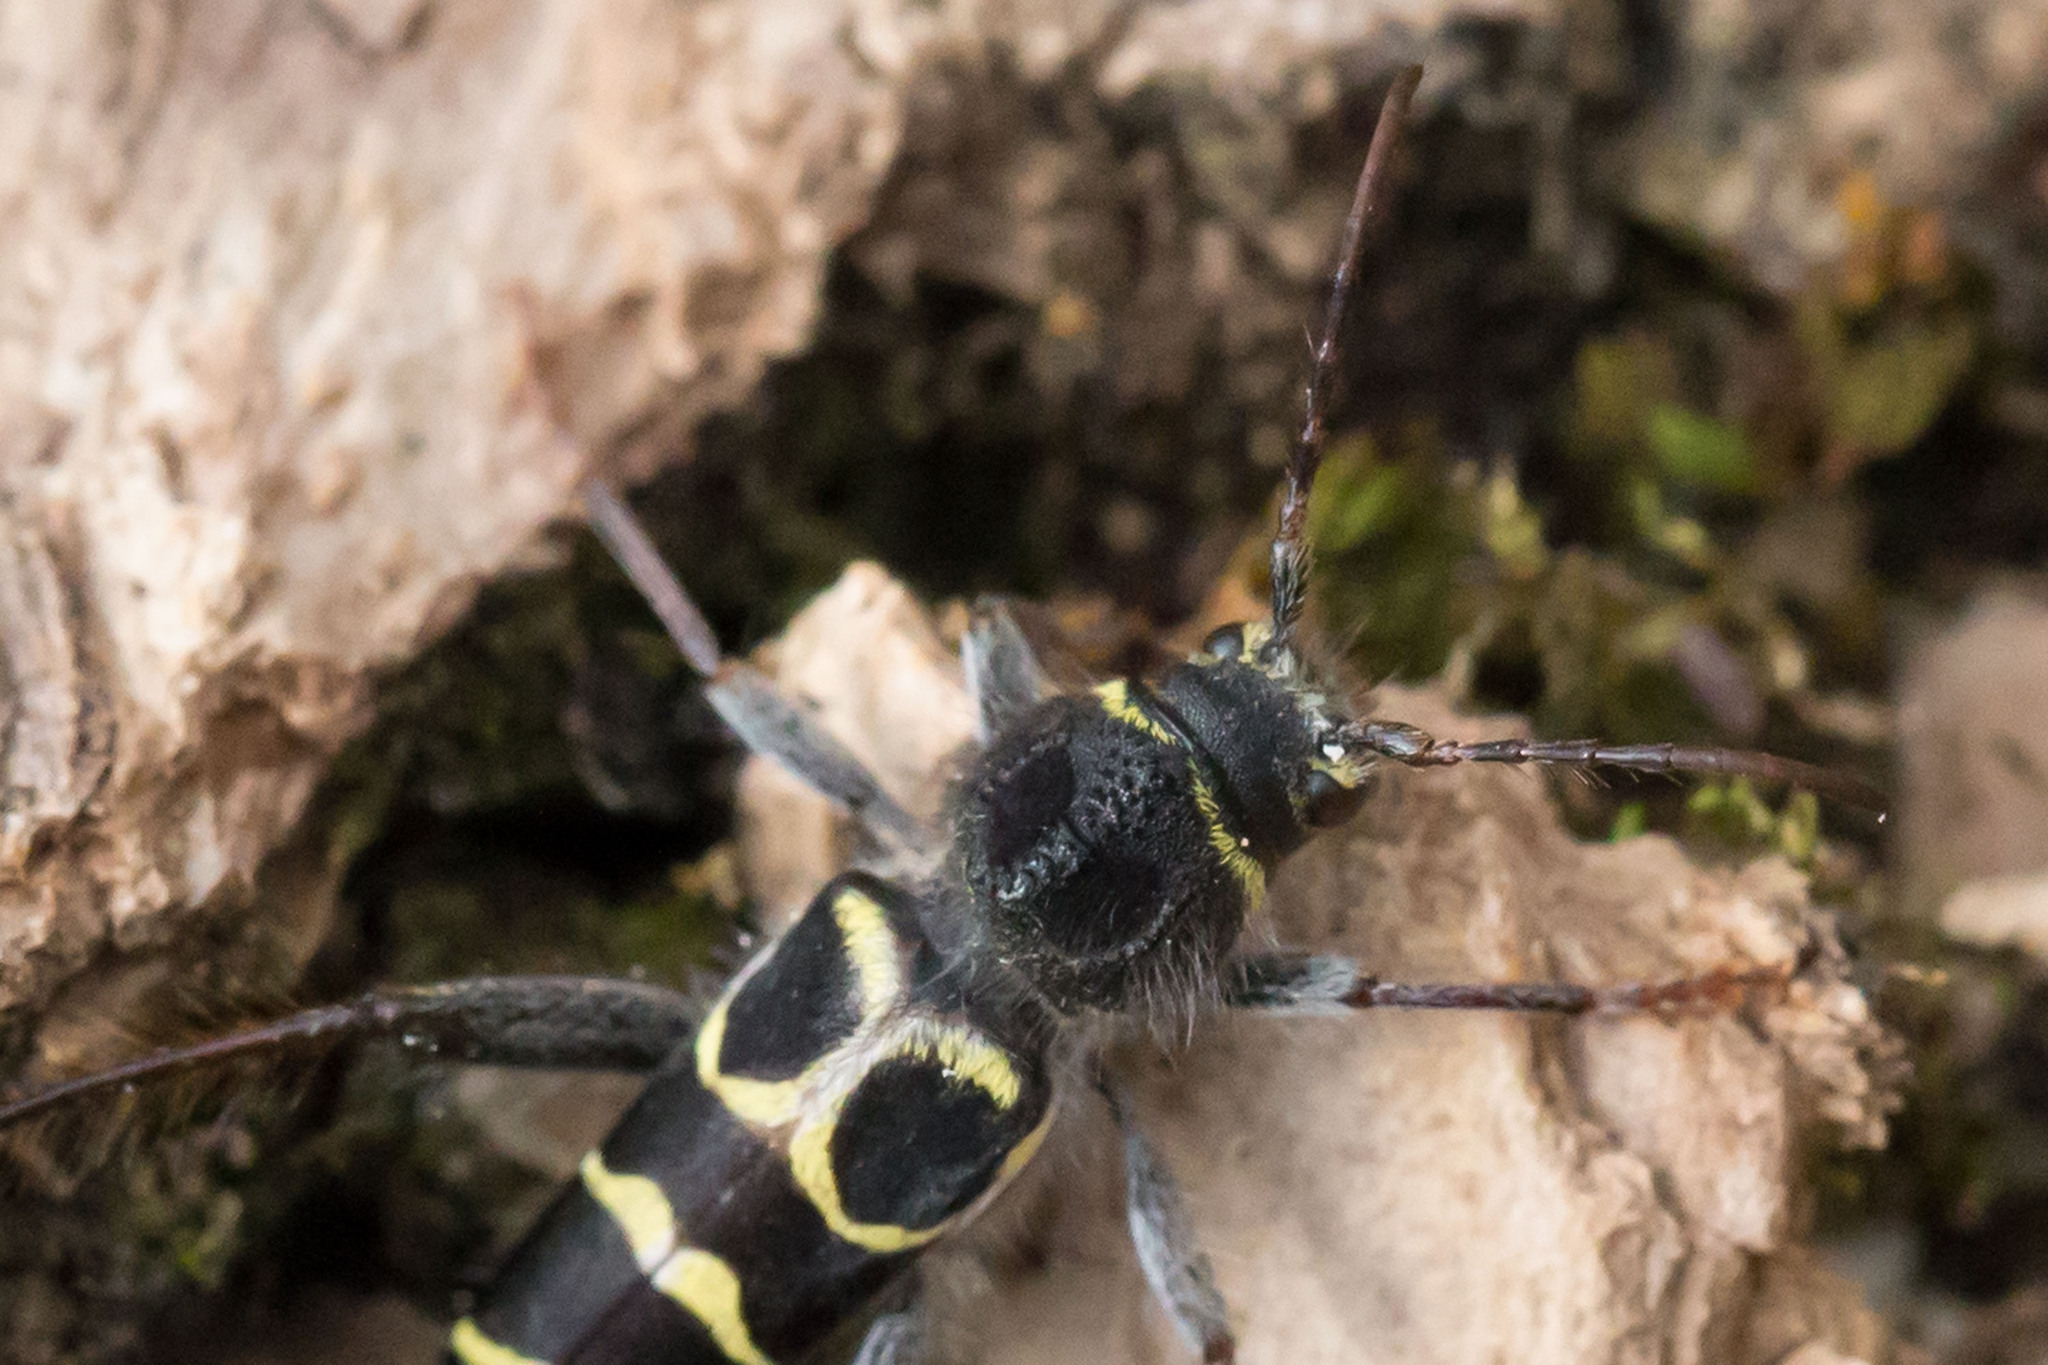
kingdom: Animalia
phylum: Arthropoda
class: Insecta
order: Coleoptera
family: Cerambycidae
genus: Neoclytus
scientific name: Neoclytus caprea
